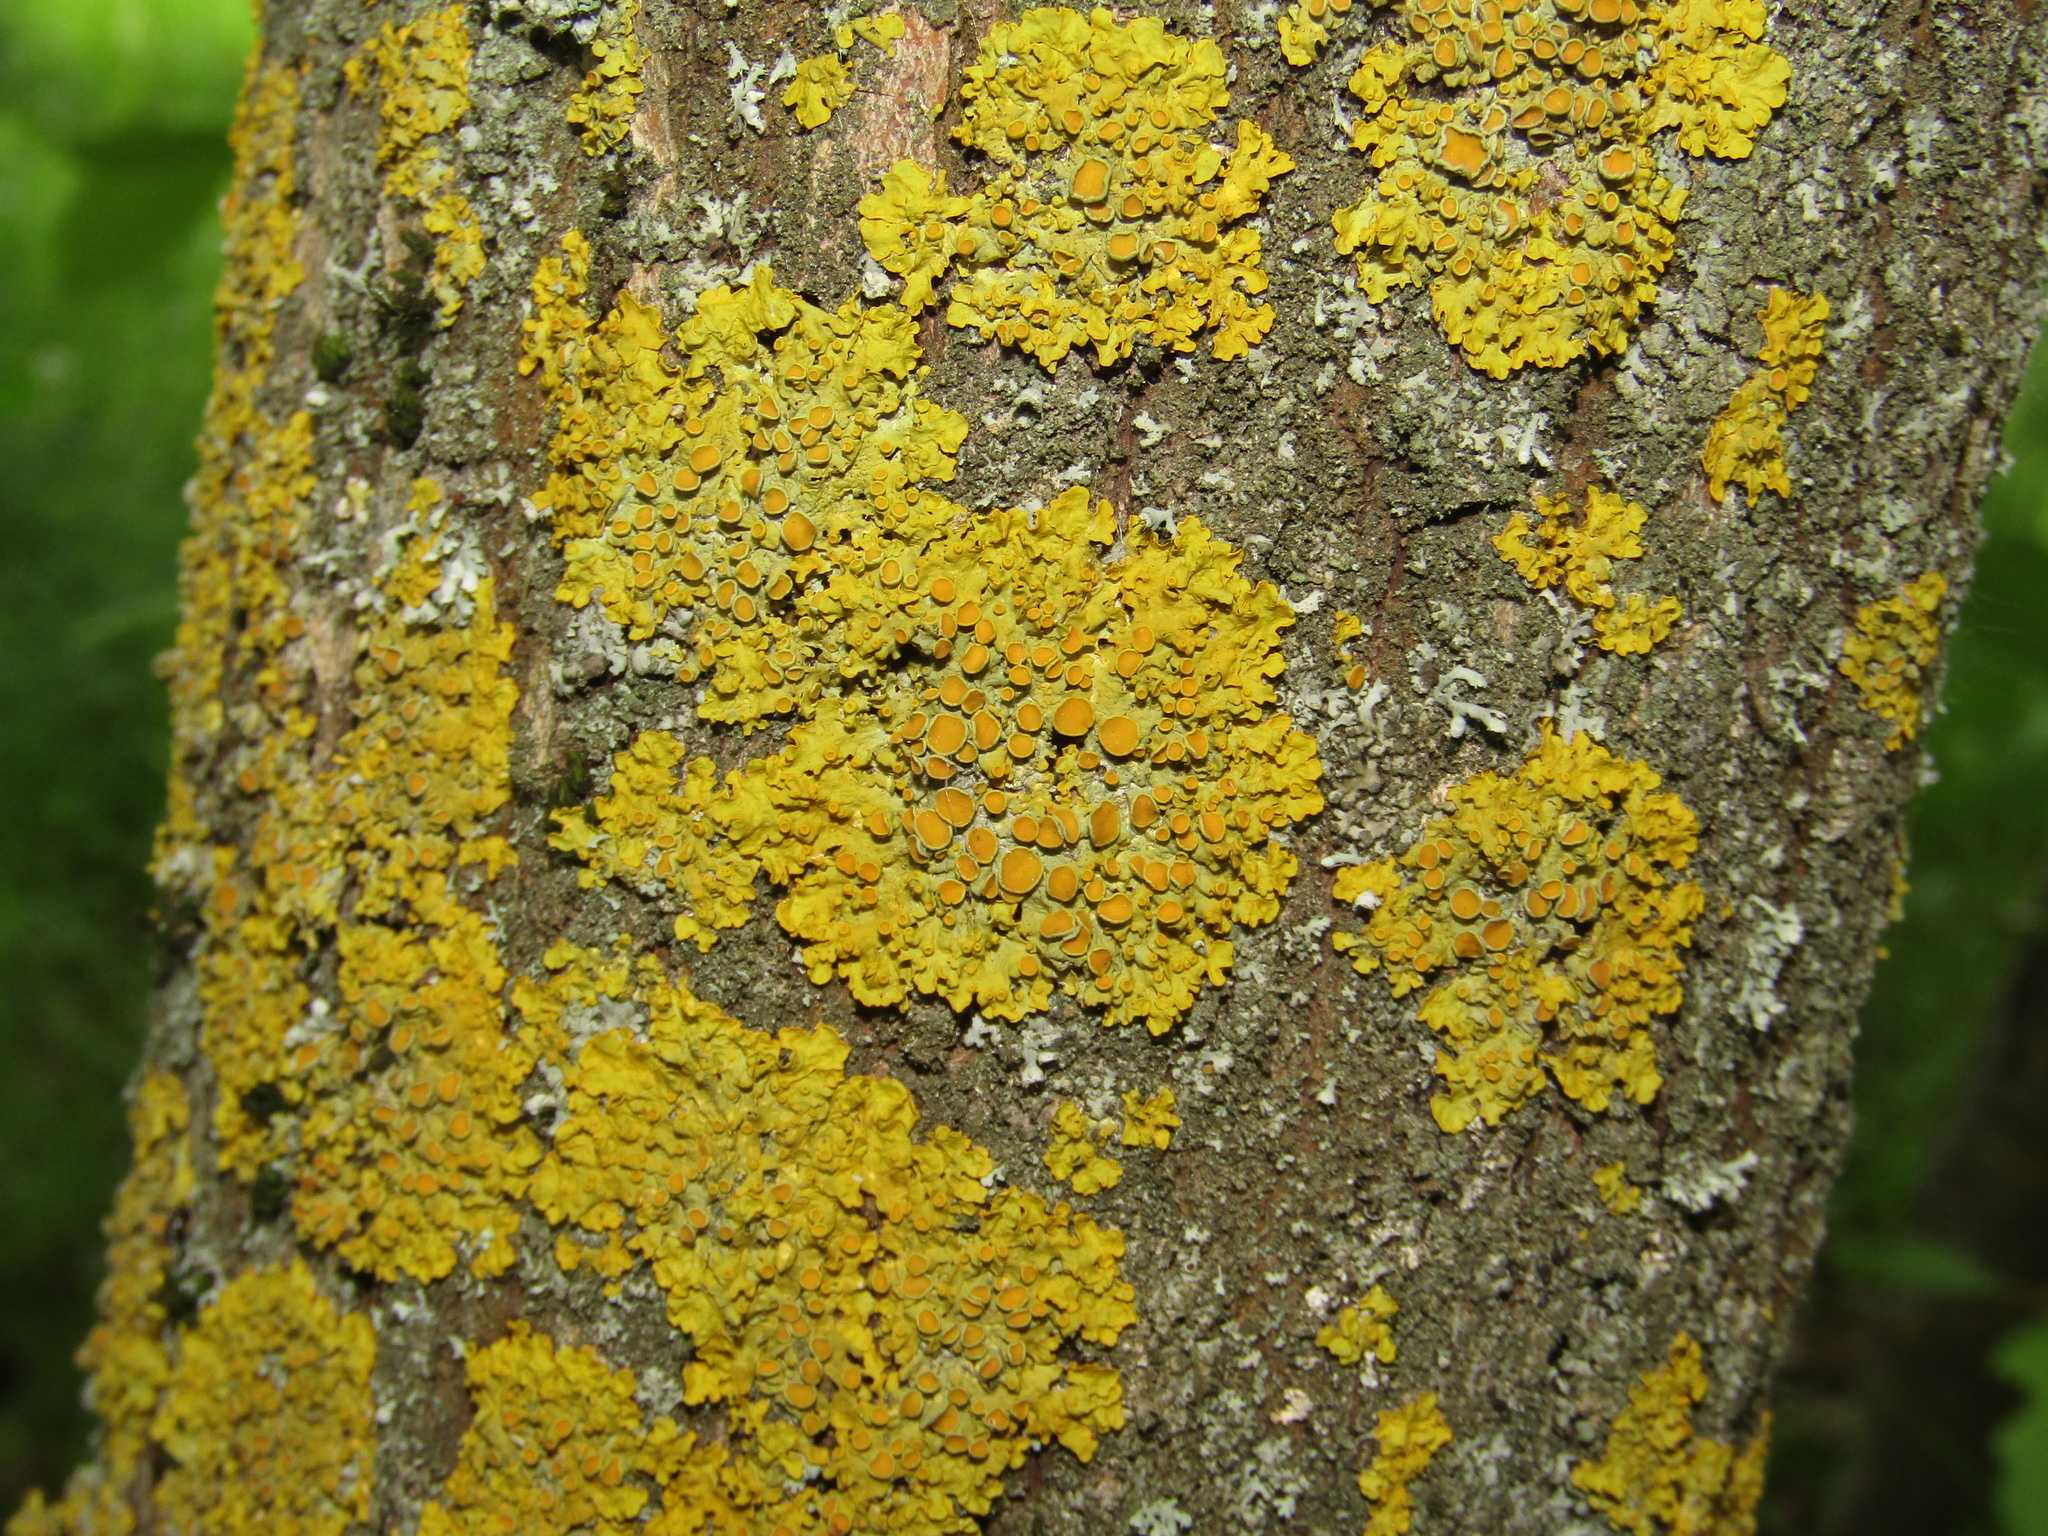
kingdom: Fungi
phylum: Ascomycota
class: Lecanoromycetes
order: Teloschistales
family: Teloschistaceae
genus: Xanthoria
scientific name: Xanthoria parietina
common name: Common orange lichen
